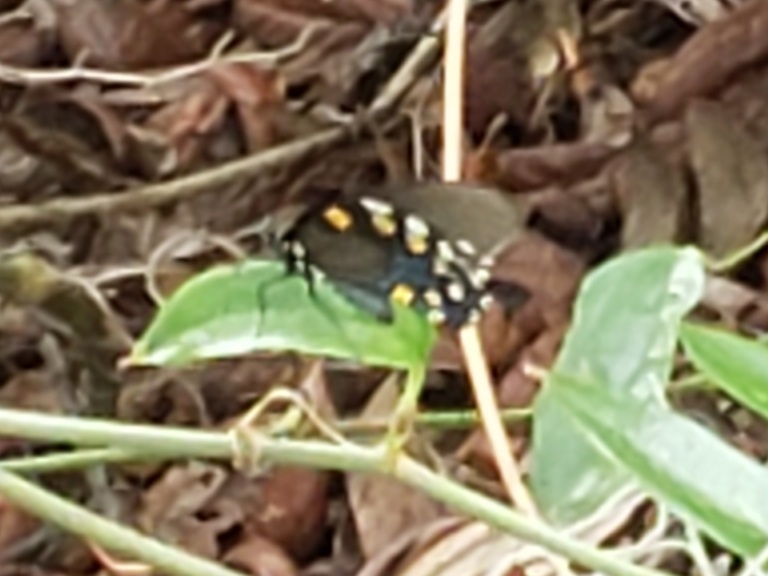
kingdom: Animalia
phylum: Arthropoda
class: Insecta
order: Lepidoptera
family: Papilionidae
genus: Battus
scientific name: Battus philenor
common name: Pipevine swallowtail
